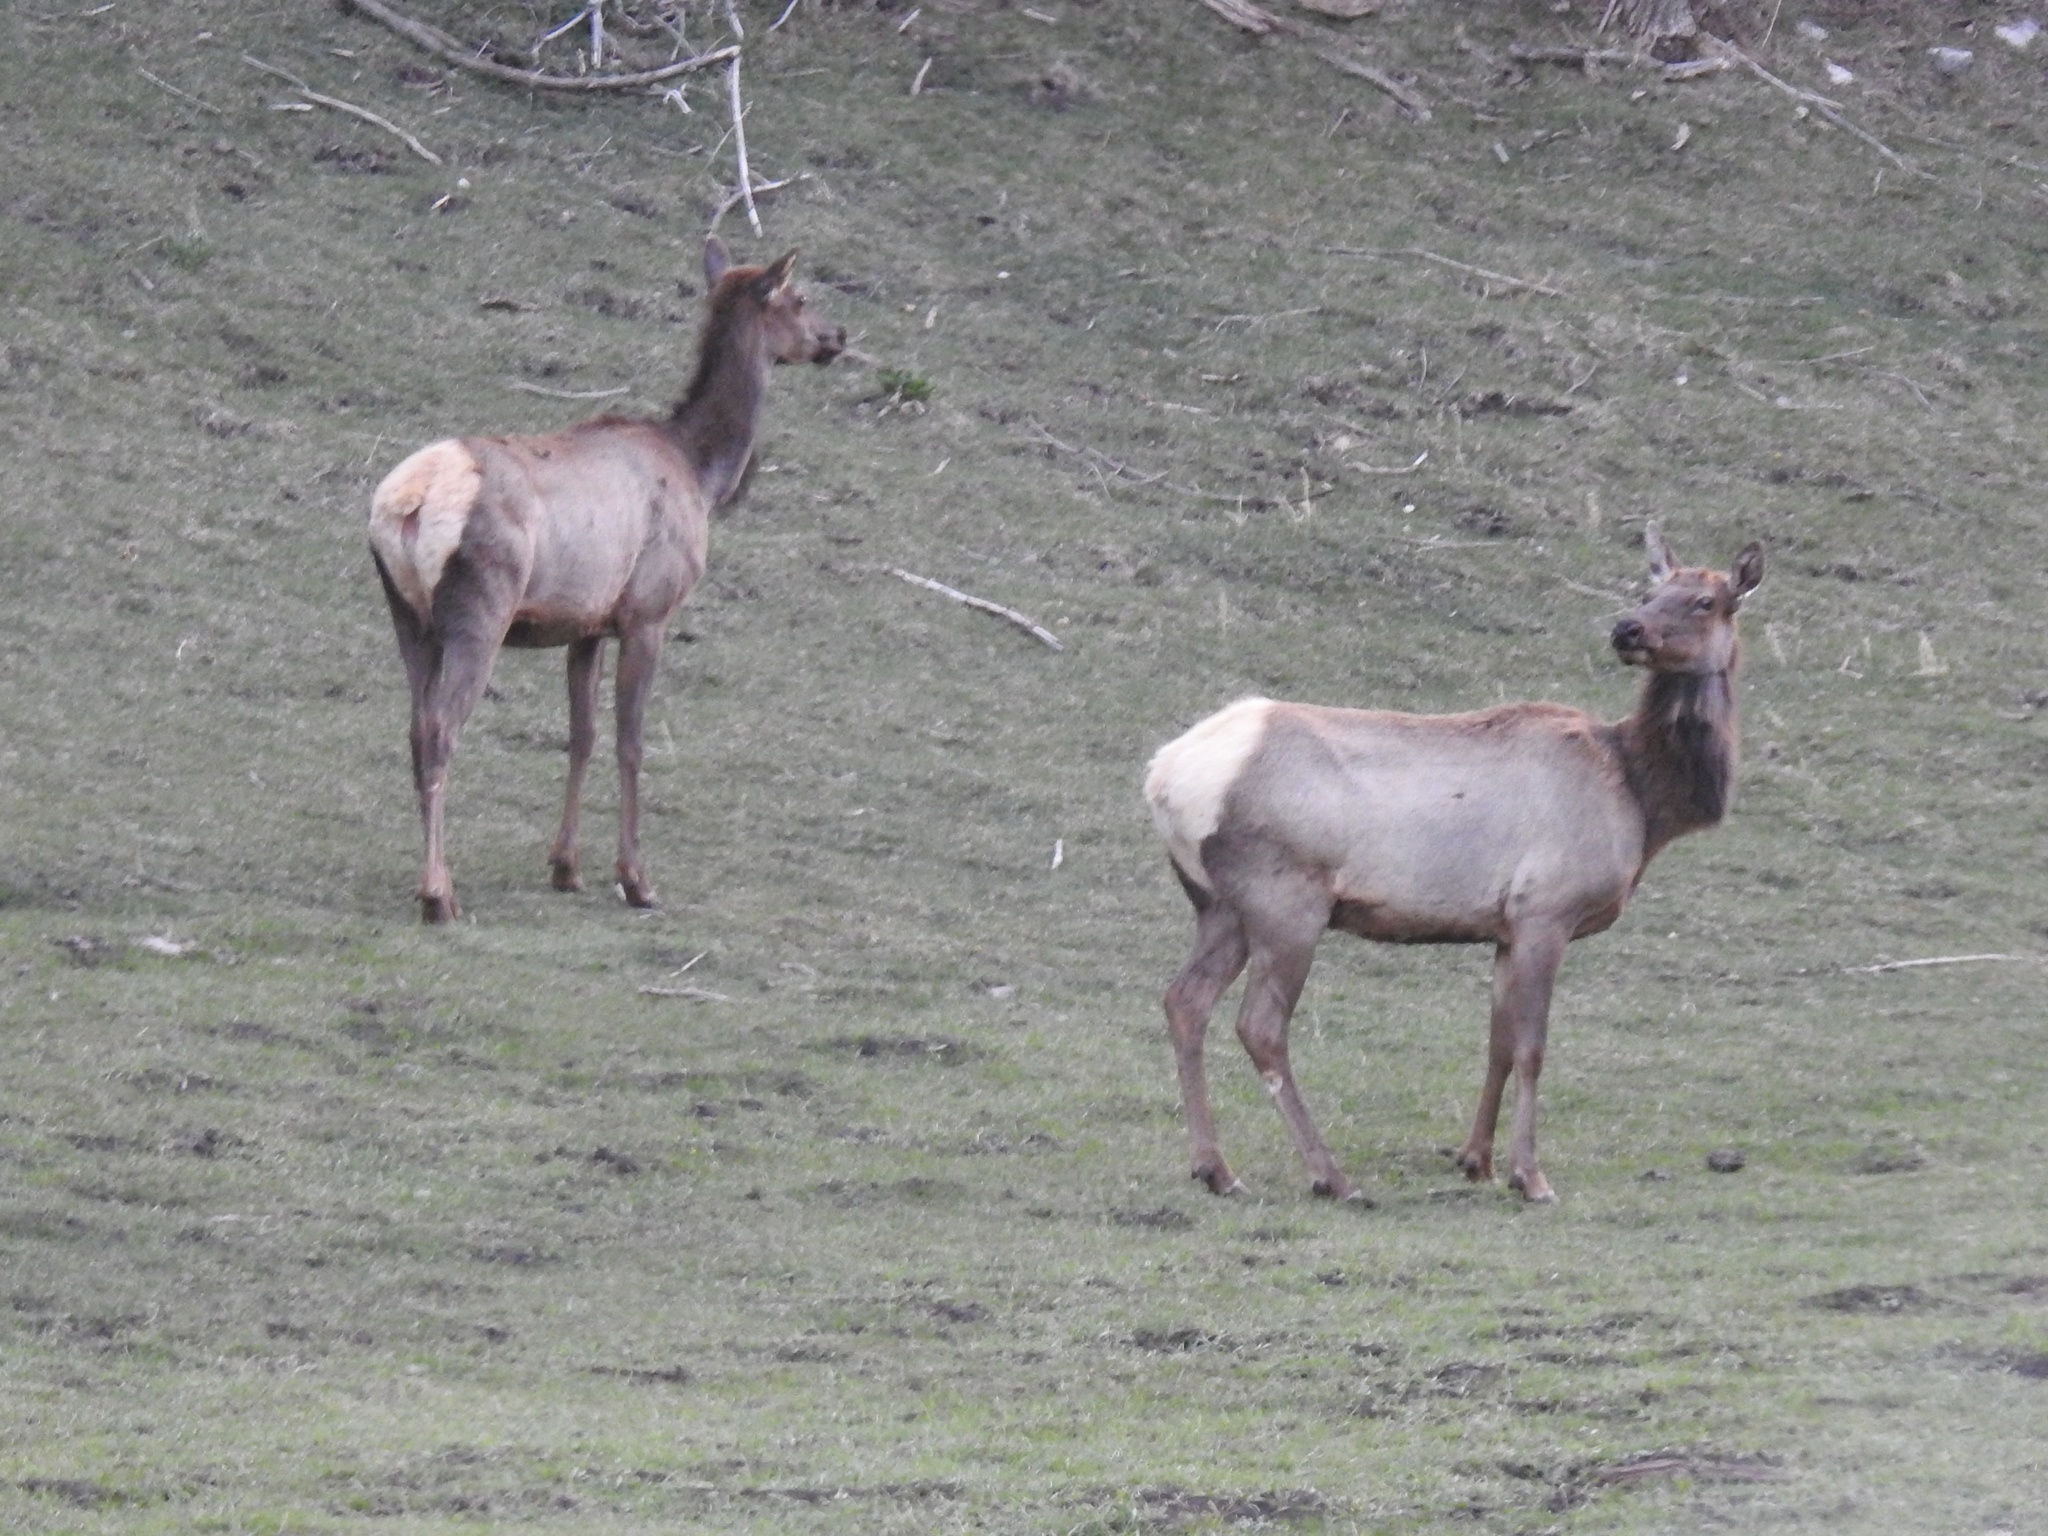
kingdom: Animalia
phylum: Chordata
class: Mammalia
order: Artiodactyla
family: Cervidae
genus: Cervus
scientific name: Cervus elaphus
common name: Red deer
